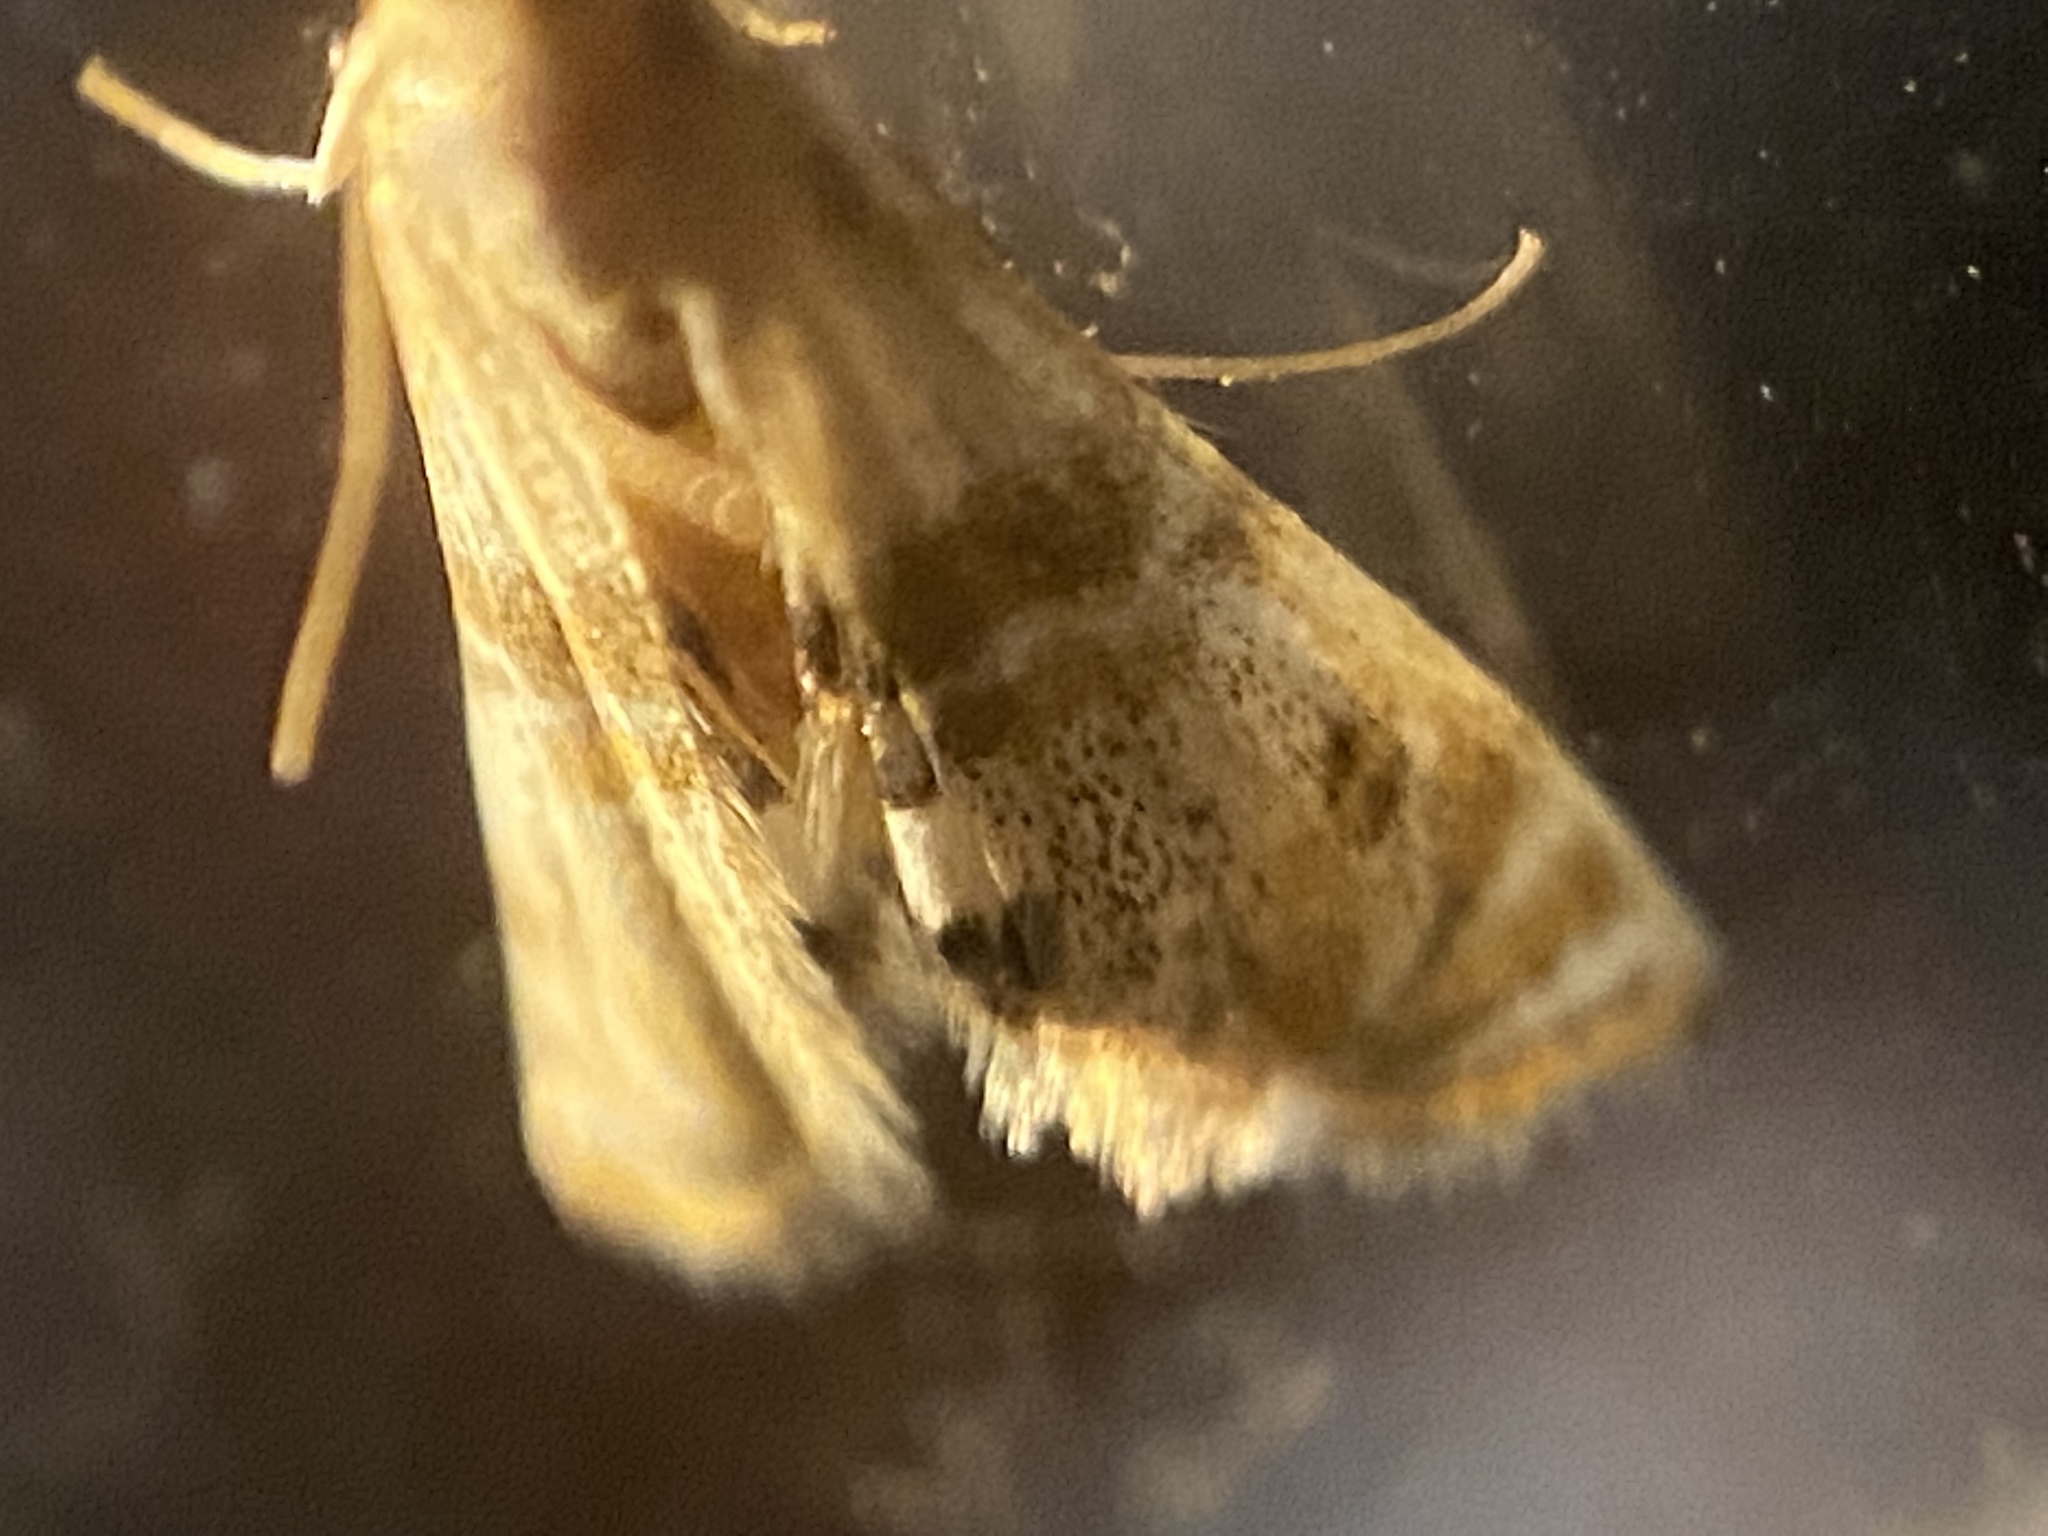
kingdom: Animalia
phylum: Arthropoda
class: Insecta
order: Lepidoptera
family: Crambidae
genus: Petrophila
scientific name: Petrophila bifascialis
